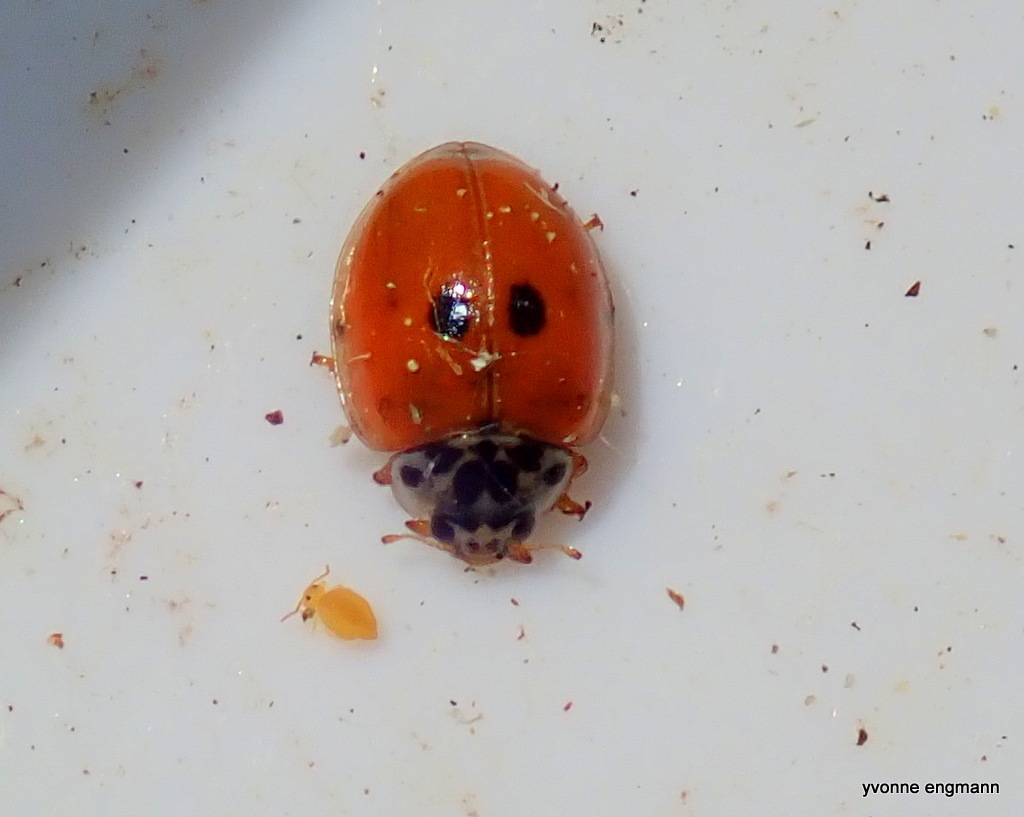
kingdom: Animalia
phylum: Arthropoda
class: Insecta
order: Coleoptera
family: Coccinellidae
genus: Adalia
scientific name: Adalia decempunctata
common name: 10-spot ladybird
